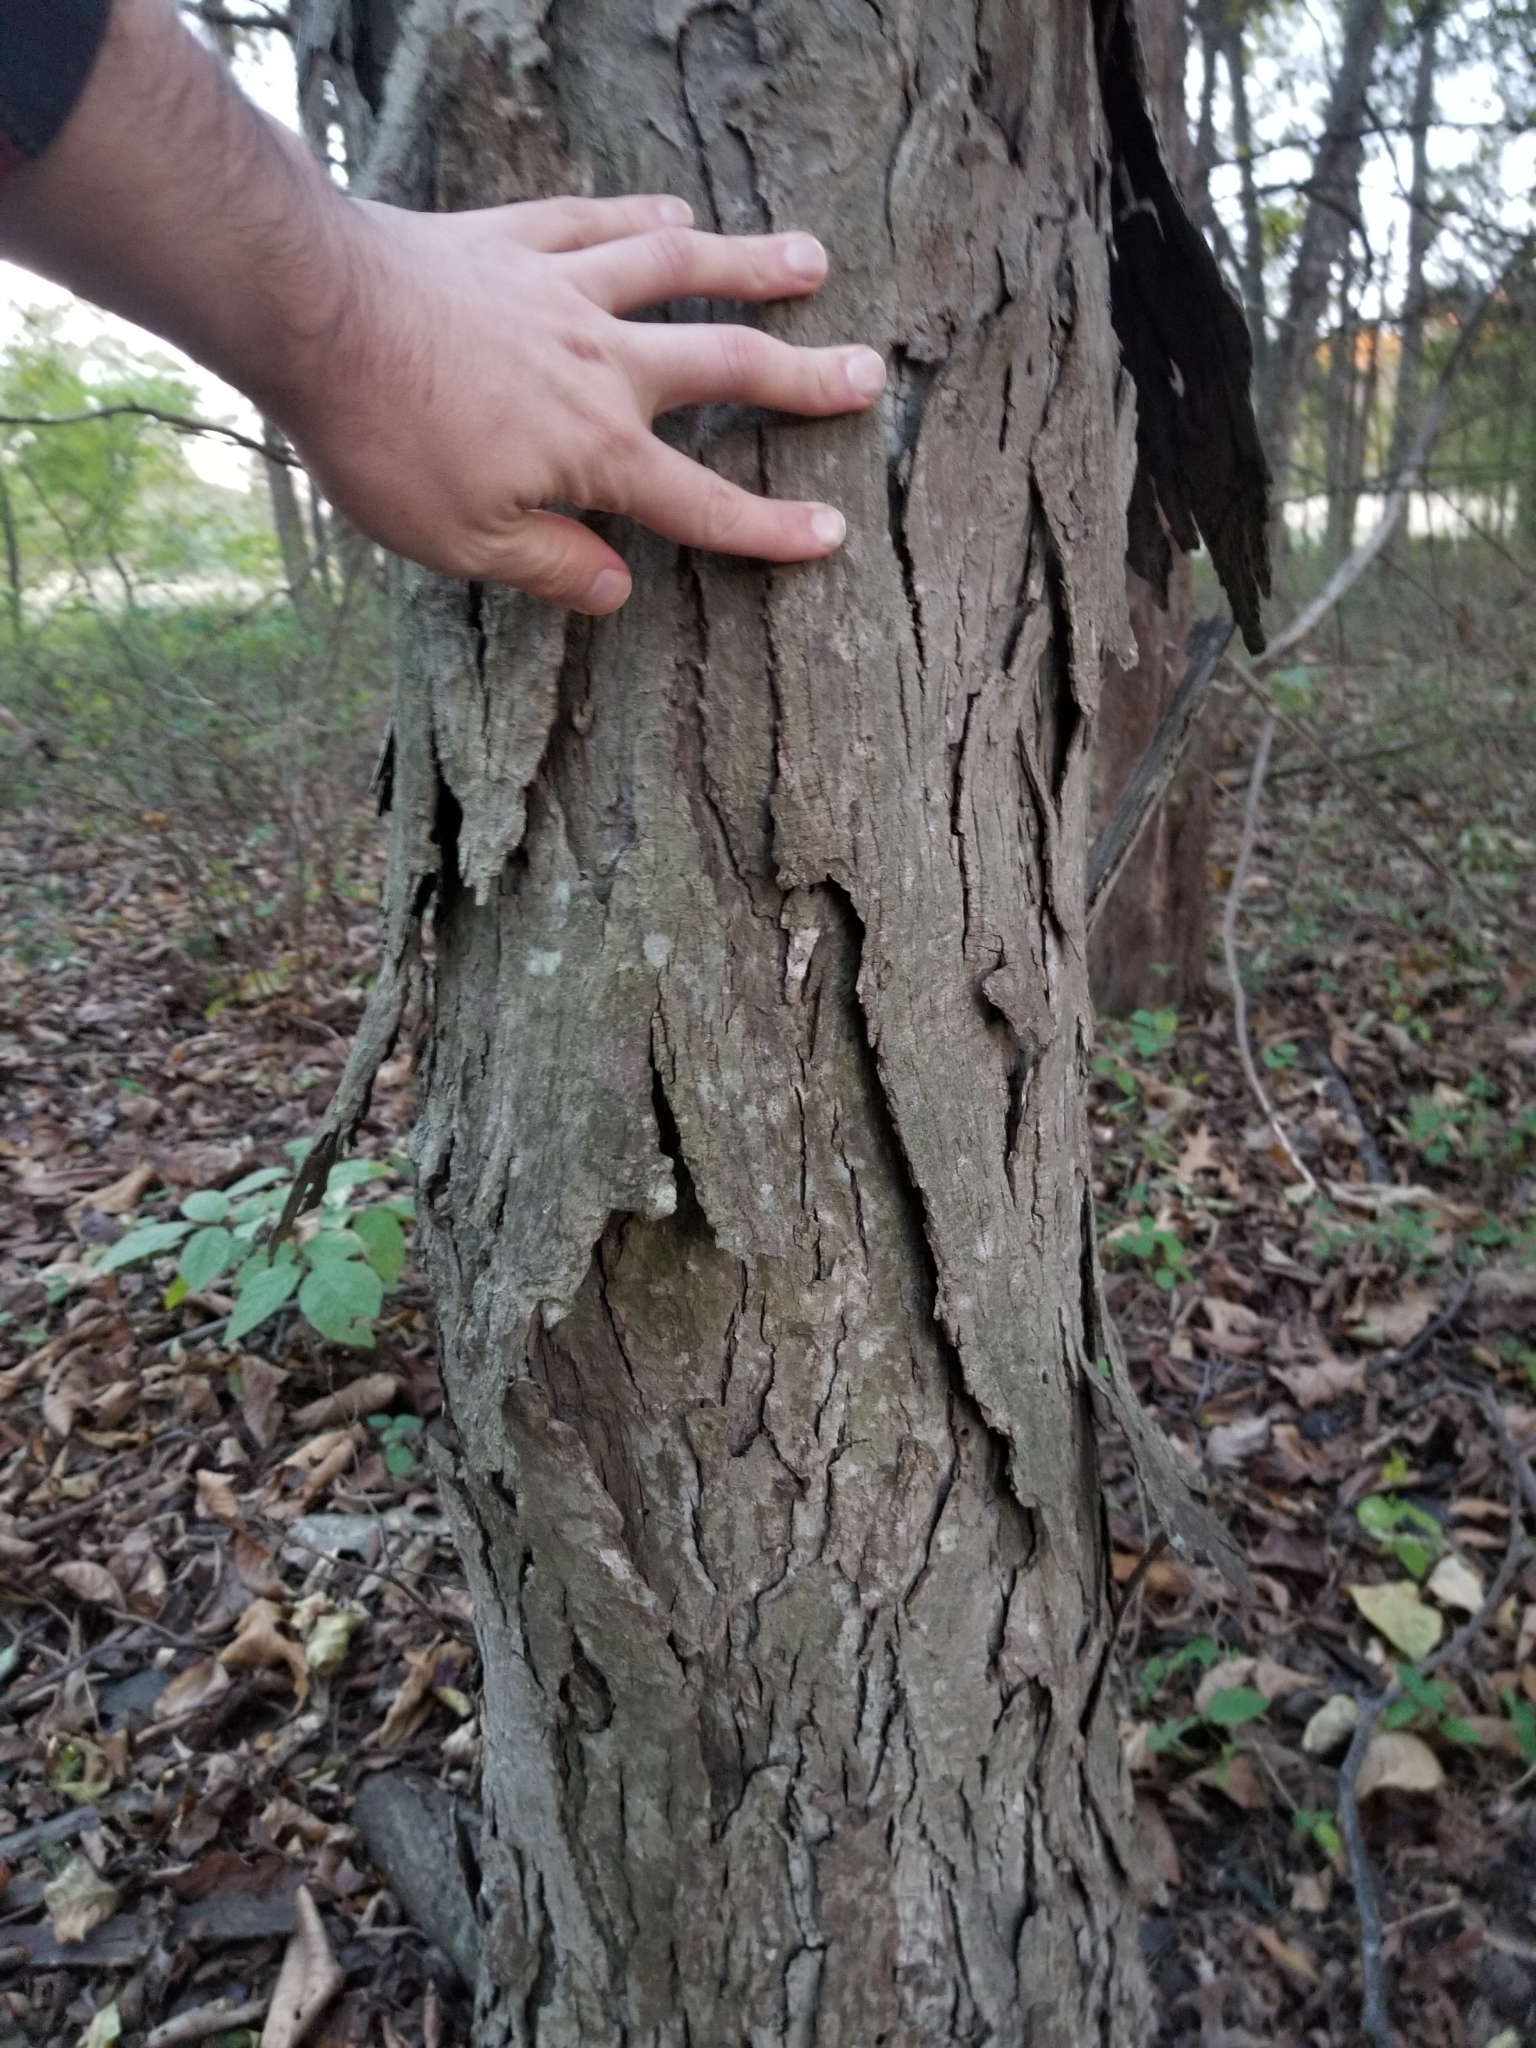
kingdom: Plantae
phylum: Tracheophyta
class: Magnoliopsida
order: Fagales
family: Juglandaceae
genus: Carya
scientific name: Carya ovata
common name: Shagbark hickory
